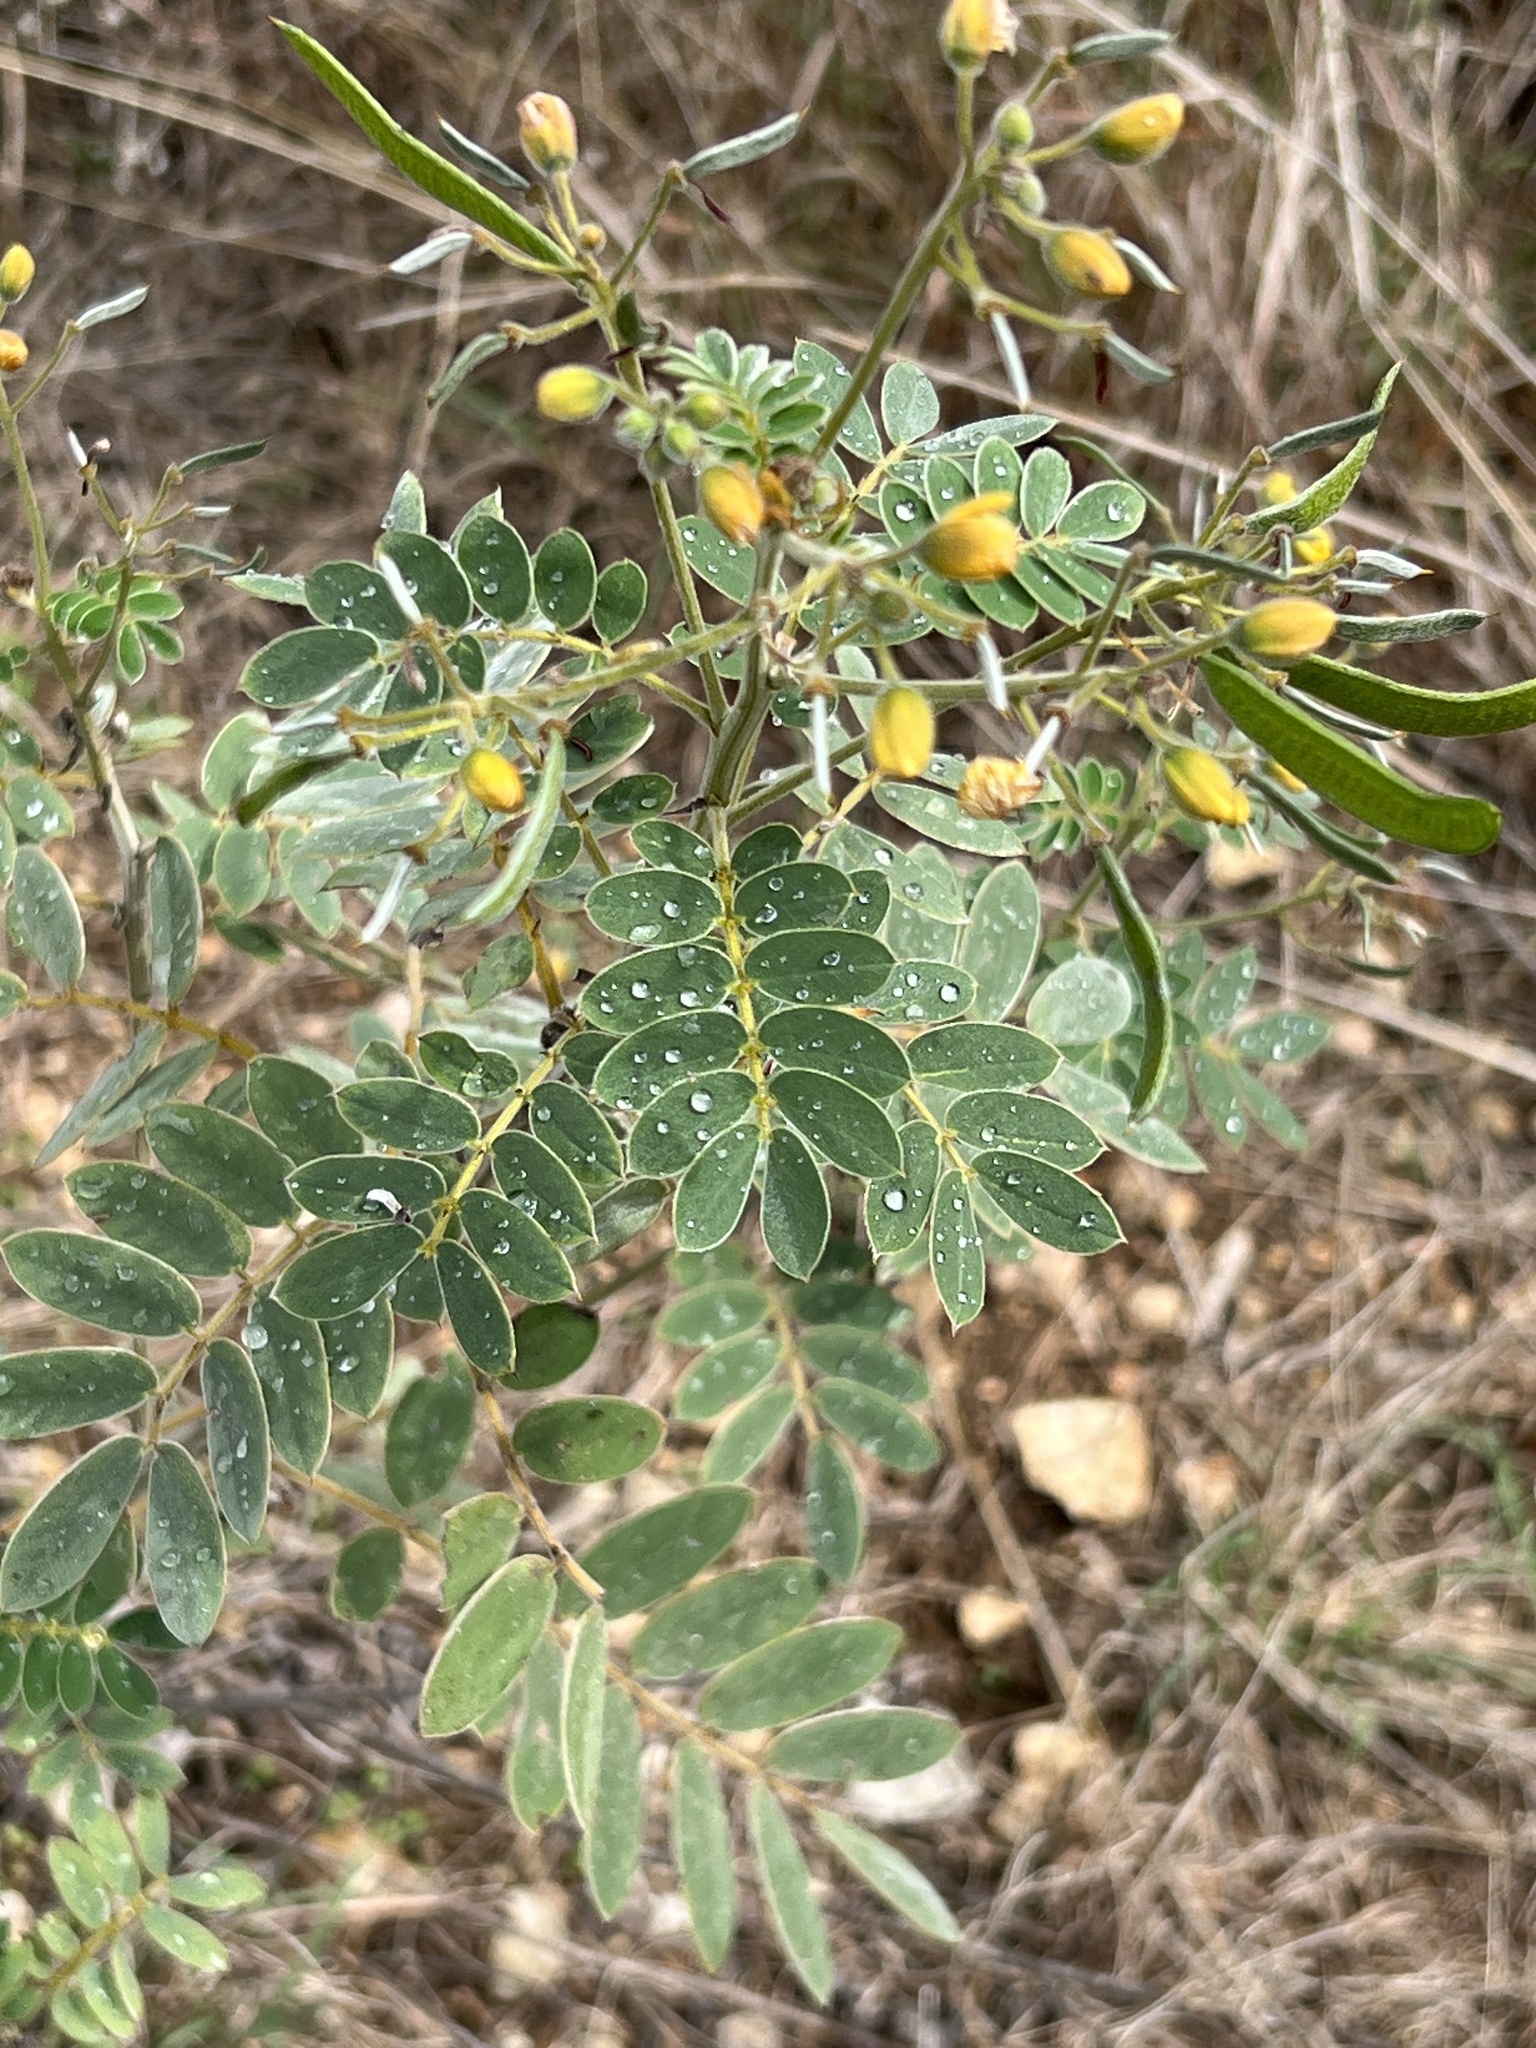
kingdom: Plantae
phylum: Tracheophyta
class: Magnoliopsida
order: Fabales
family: Fabaceae
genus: Senna
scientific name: Senna lindheimeriana
